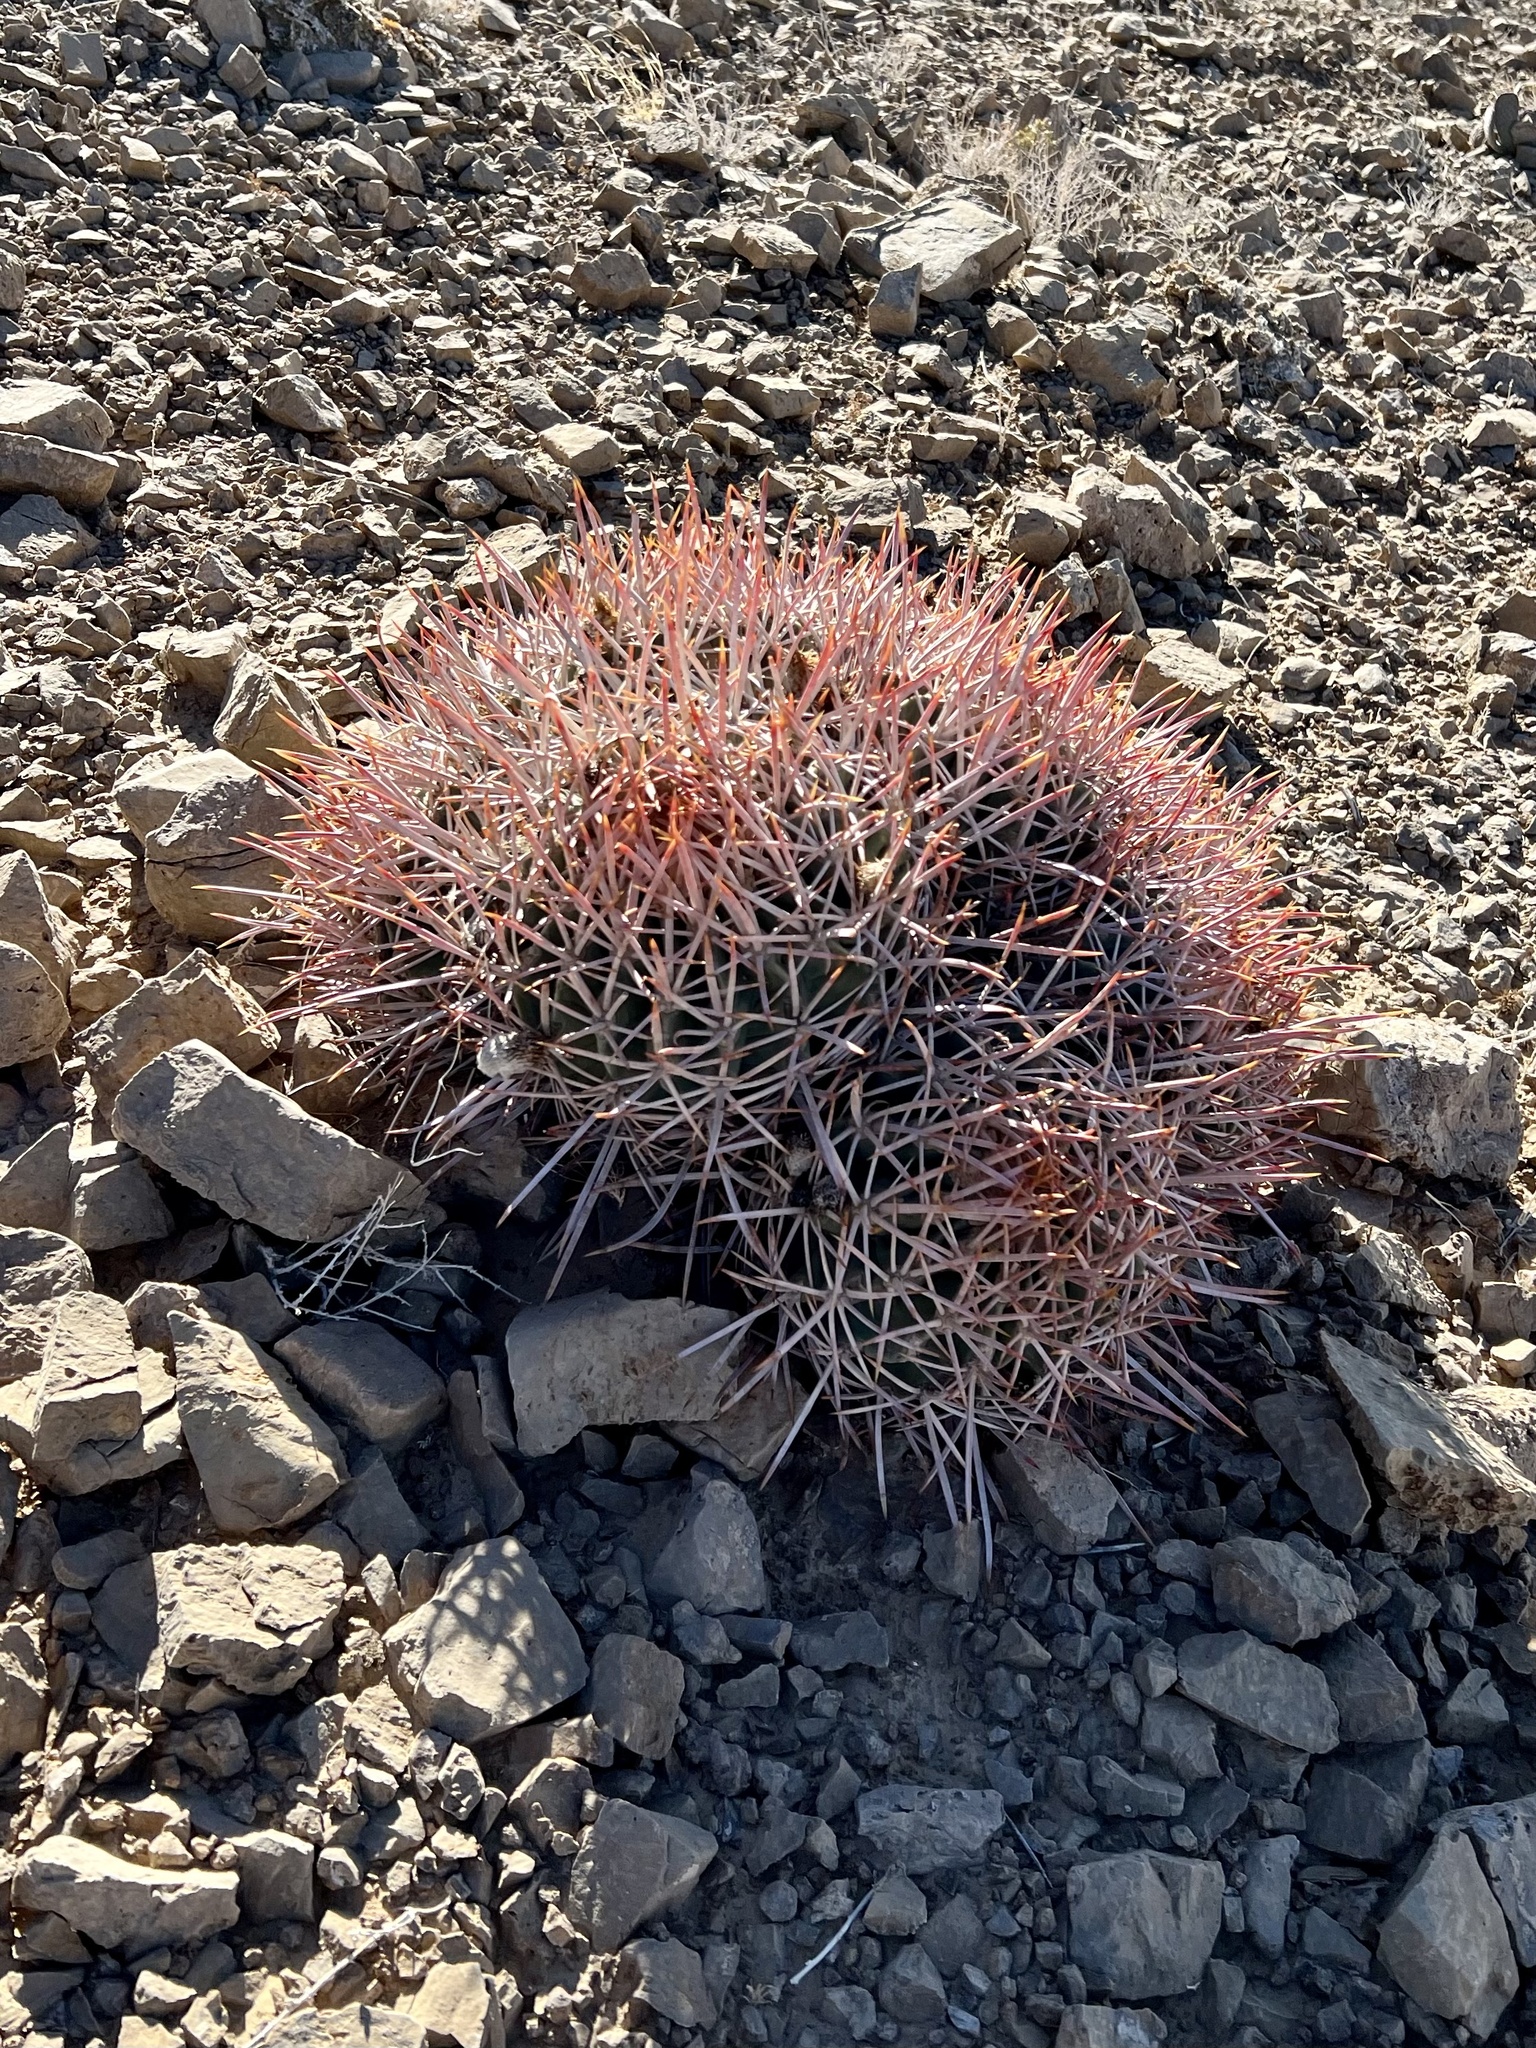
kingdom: Plantae
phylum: Tracheophyta
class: Magnoliopsida
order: Caryophyllales
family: Cactaceae
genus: Echinocactus
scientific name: Echinocactus polycephalus
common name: Cottontop cactus
